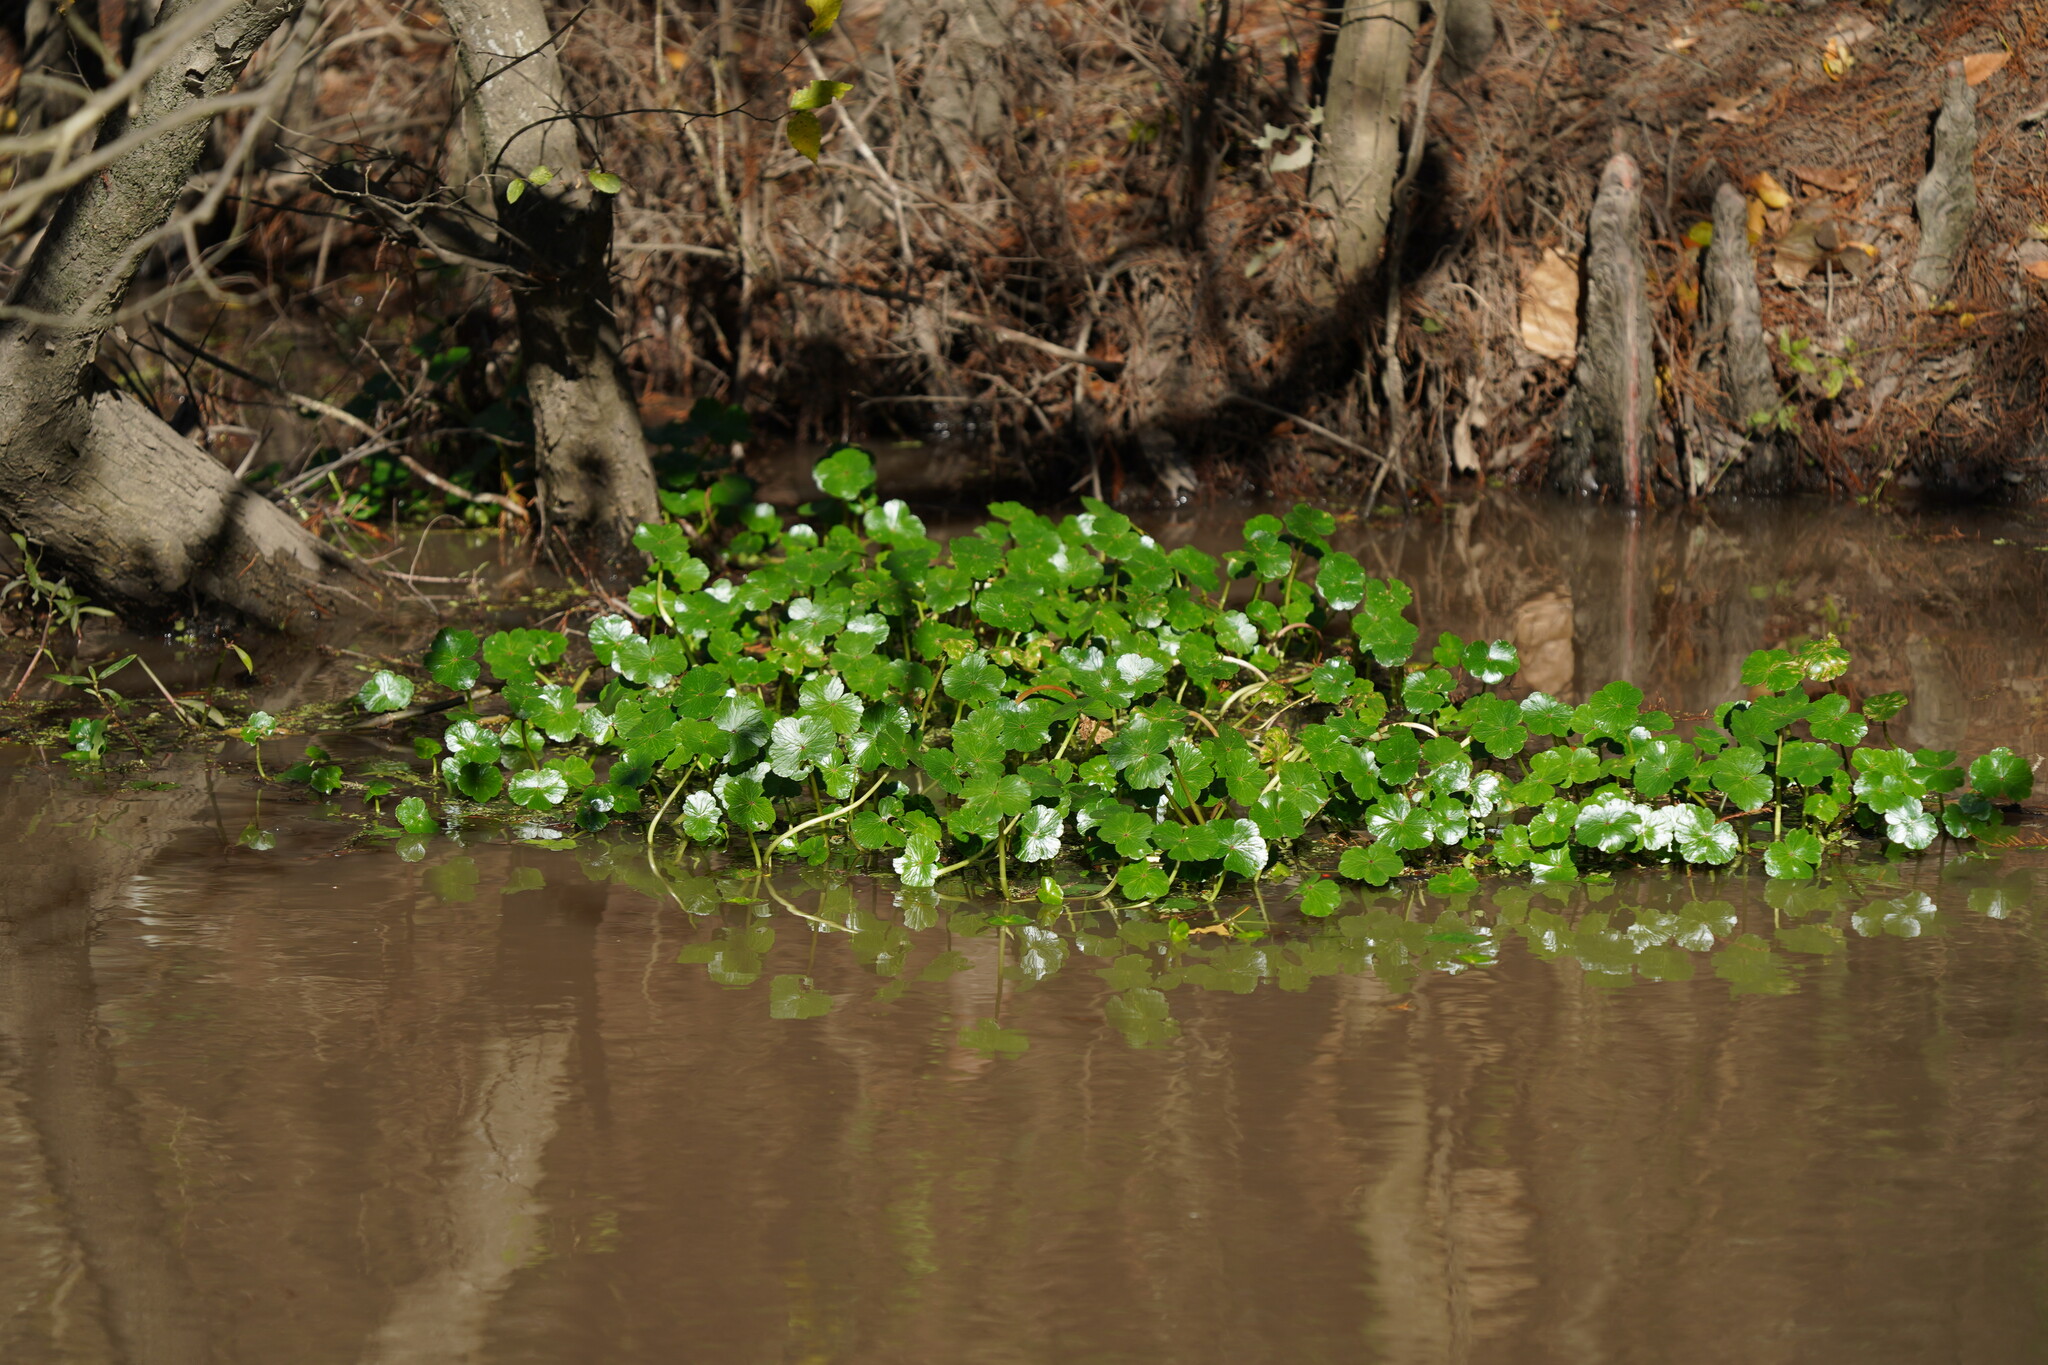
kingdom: Plantae
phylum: Tracheophyta
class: Magnoliopsida
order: Apiales
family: Araliaceae
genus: Hydrocotyle
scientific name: Hydrocotyle ranunculoides
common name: Floating pennywort
